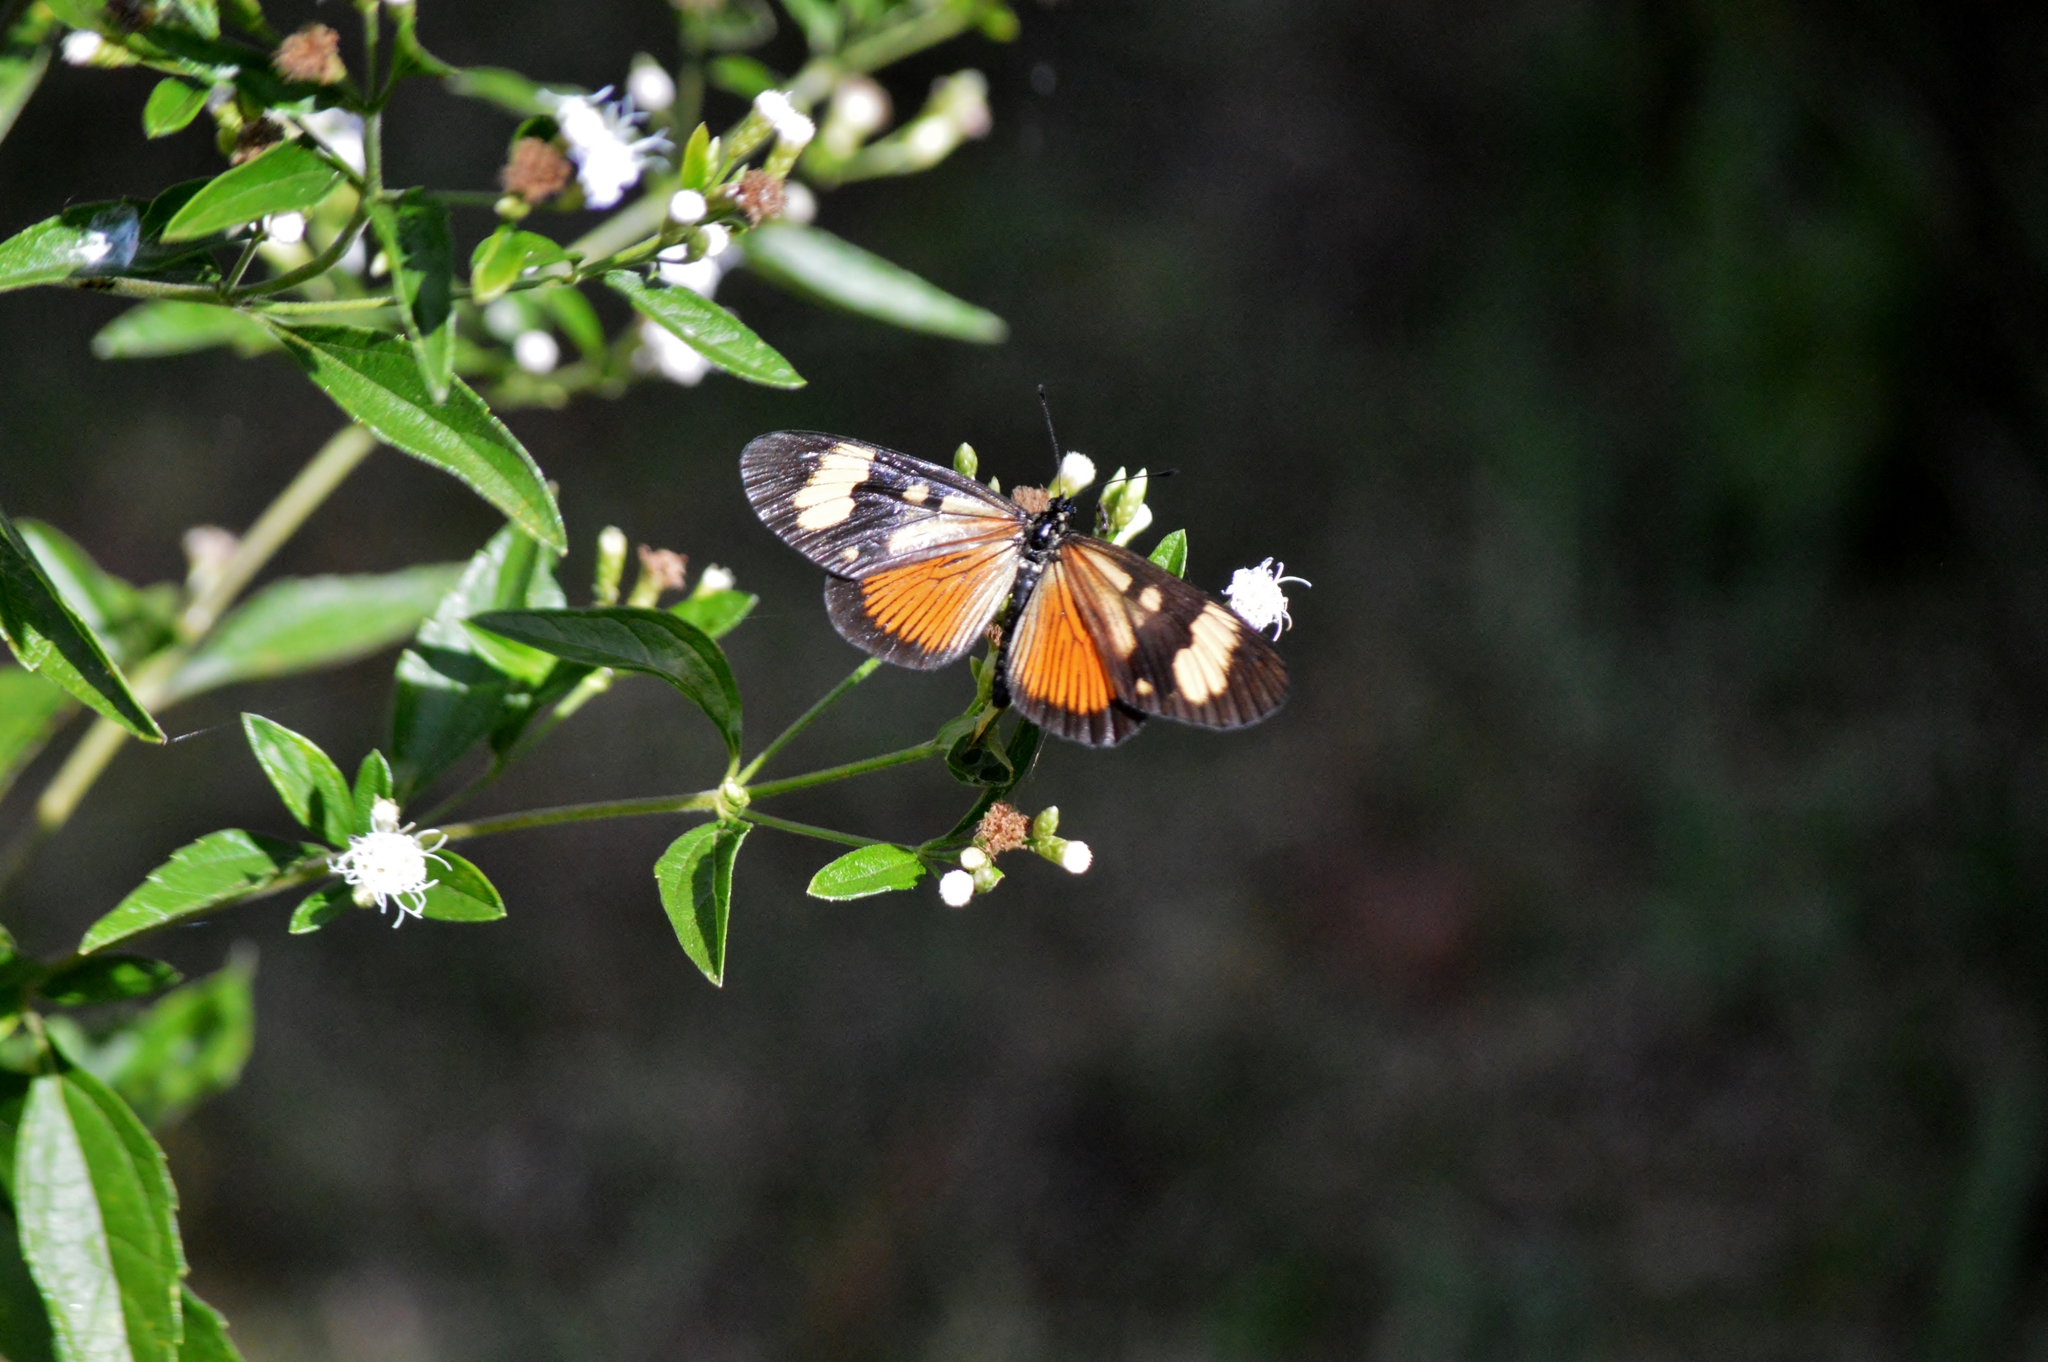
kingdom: Animalia
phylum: Arthropoda
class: Insecta
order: Lepidoptera
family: Nymphalidae
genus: Actinote
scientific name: Actinote pellenea
